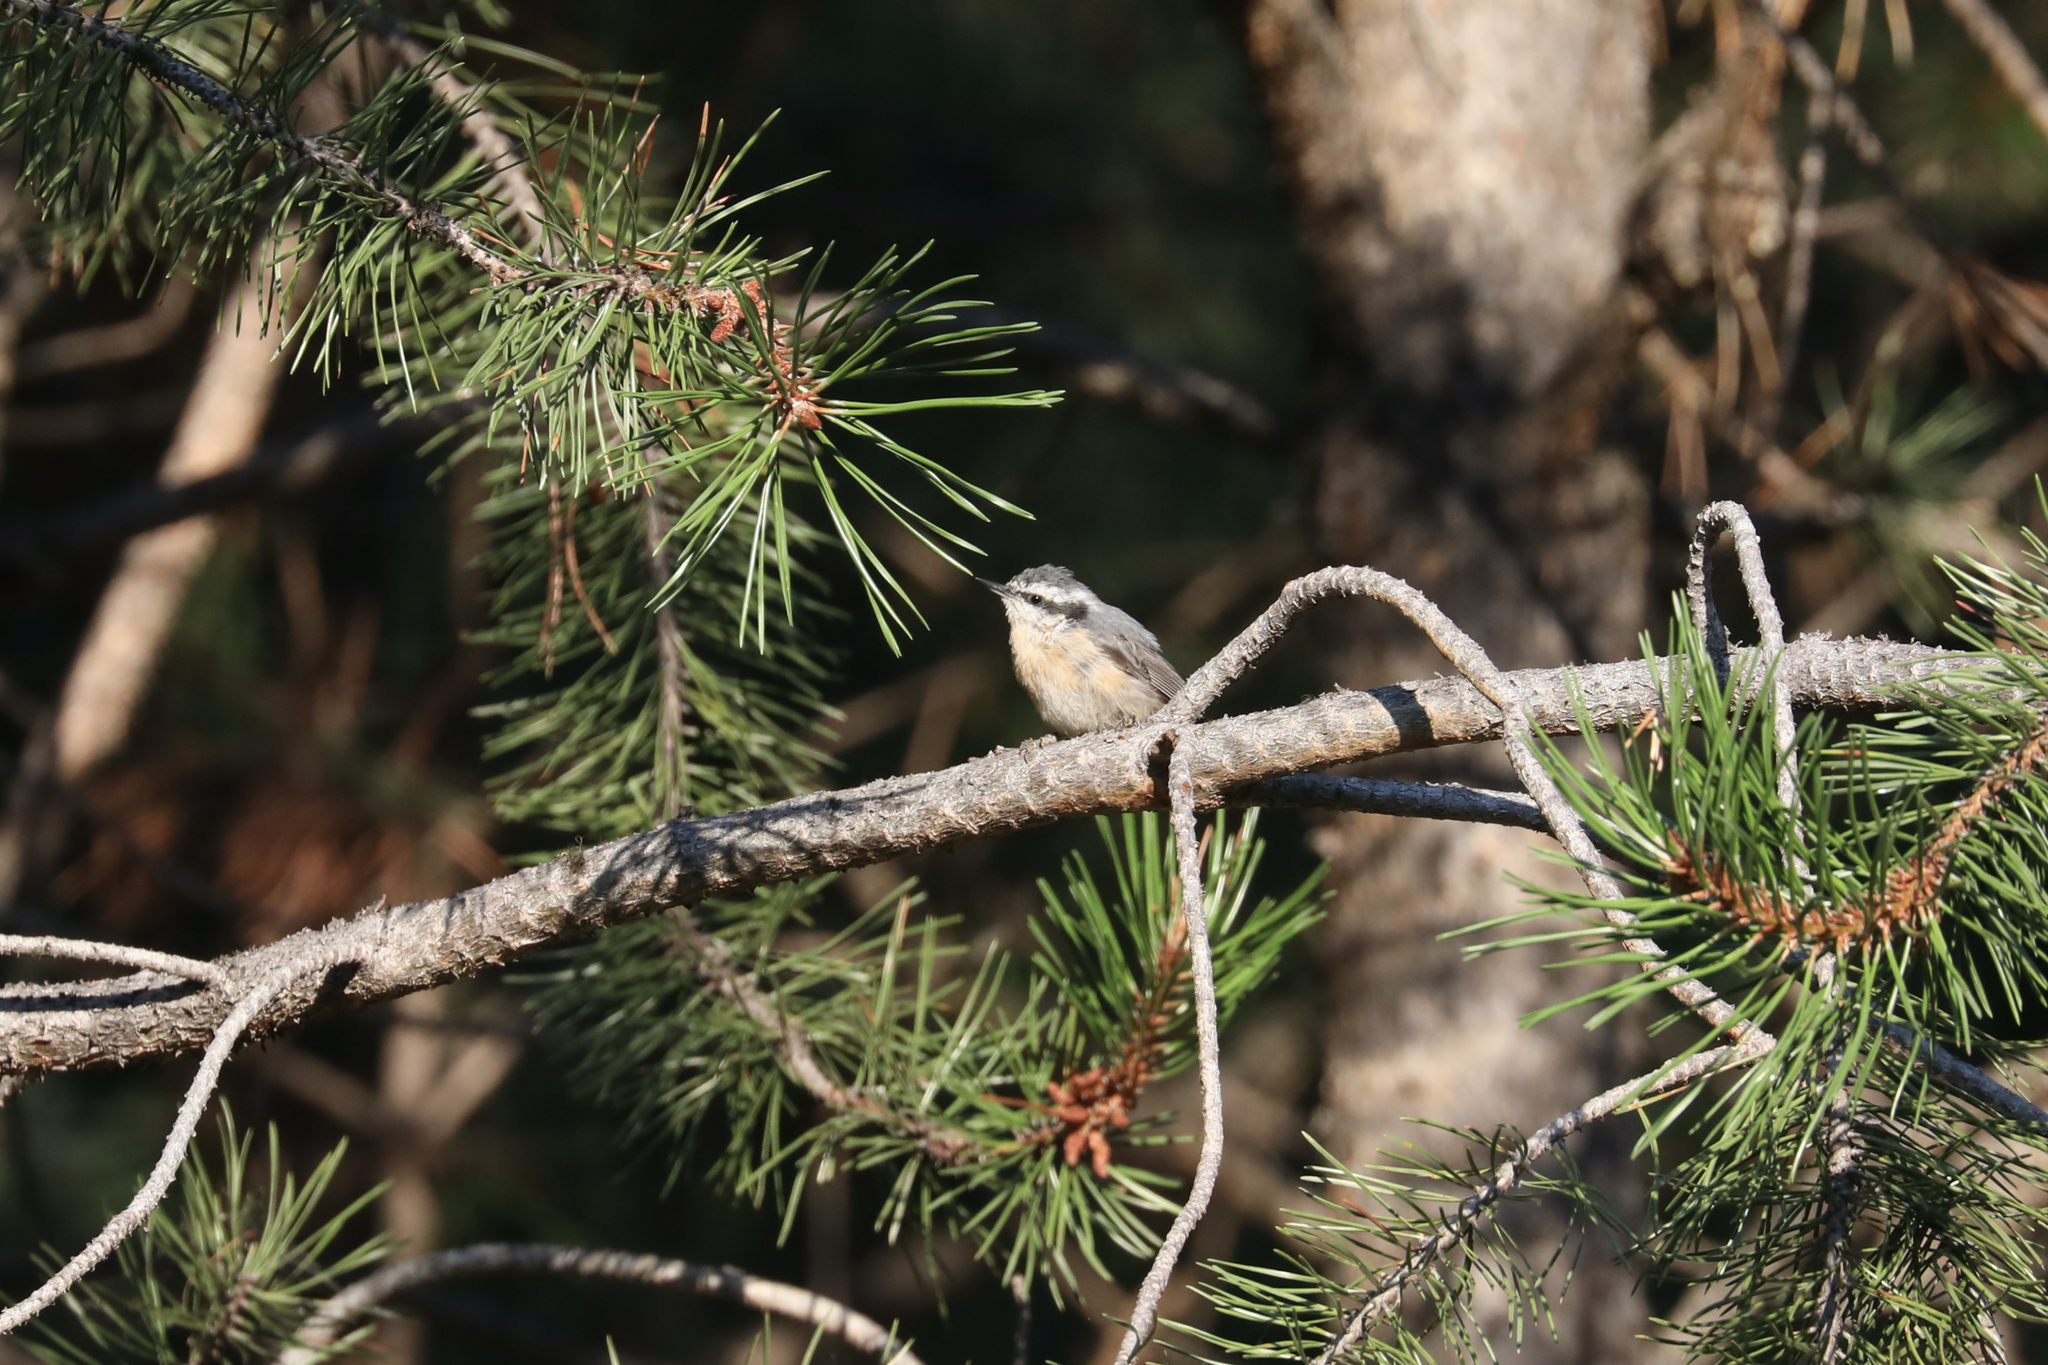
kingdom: Animalia
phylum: Chordata
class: Aves
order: Passeriformes
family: Sittidae
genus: Sitta
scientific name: Sitta canadensis
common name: Red-breasted nuthatch
